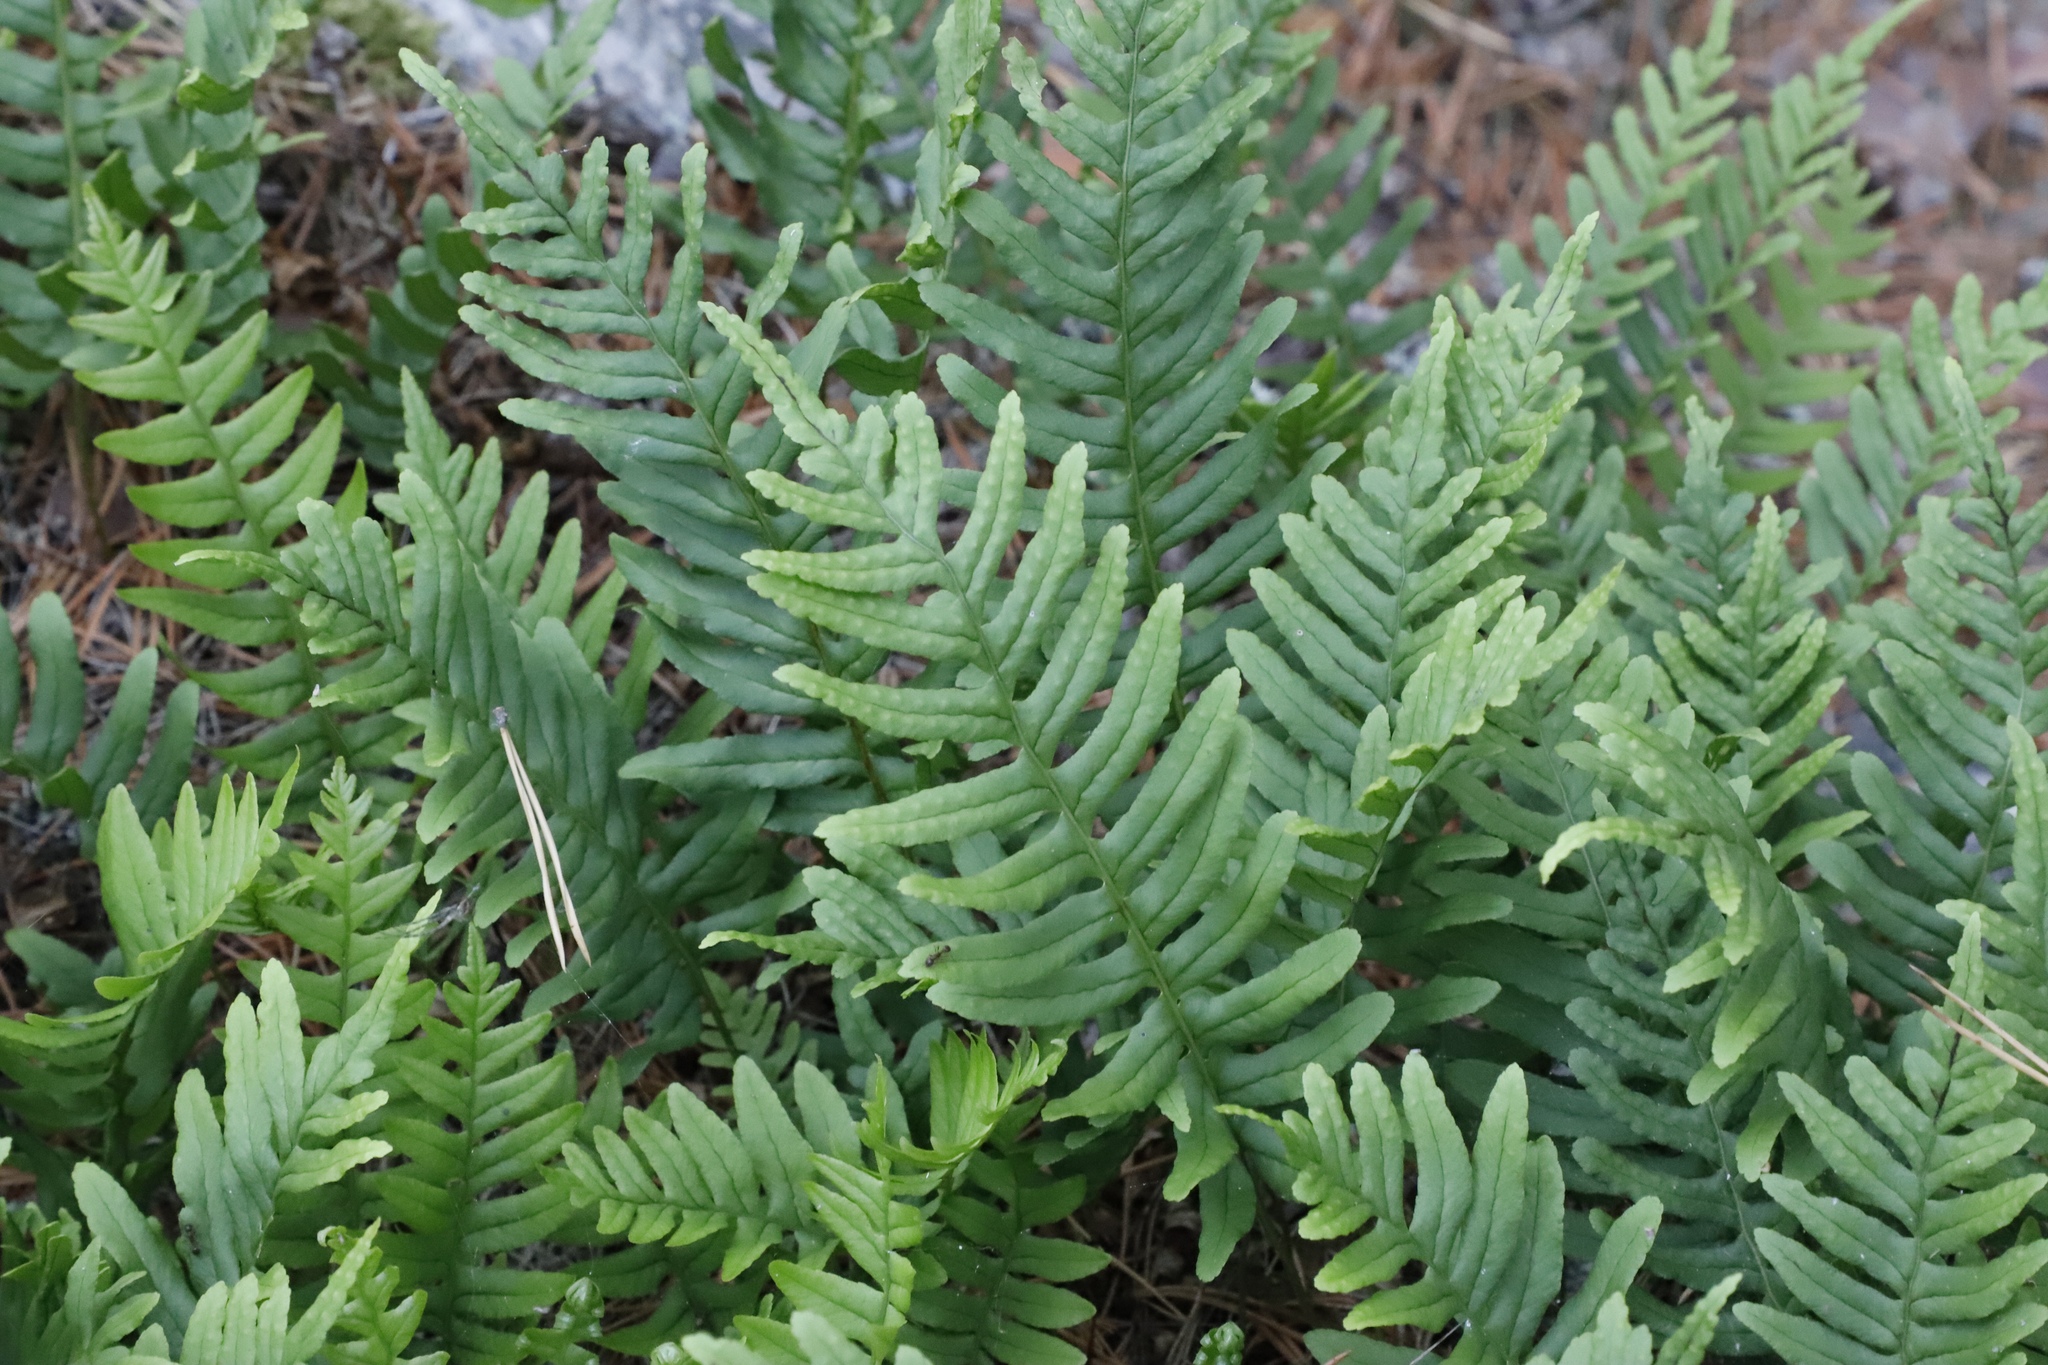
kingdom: Plantae
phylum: Tracheophyta
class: Polypodiopsida
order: Polypodiales
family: Polypodiaceae
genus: Polypodium
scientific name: Polypodium vulgare
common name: Common polypody
